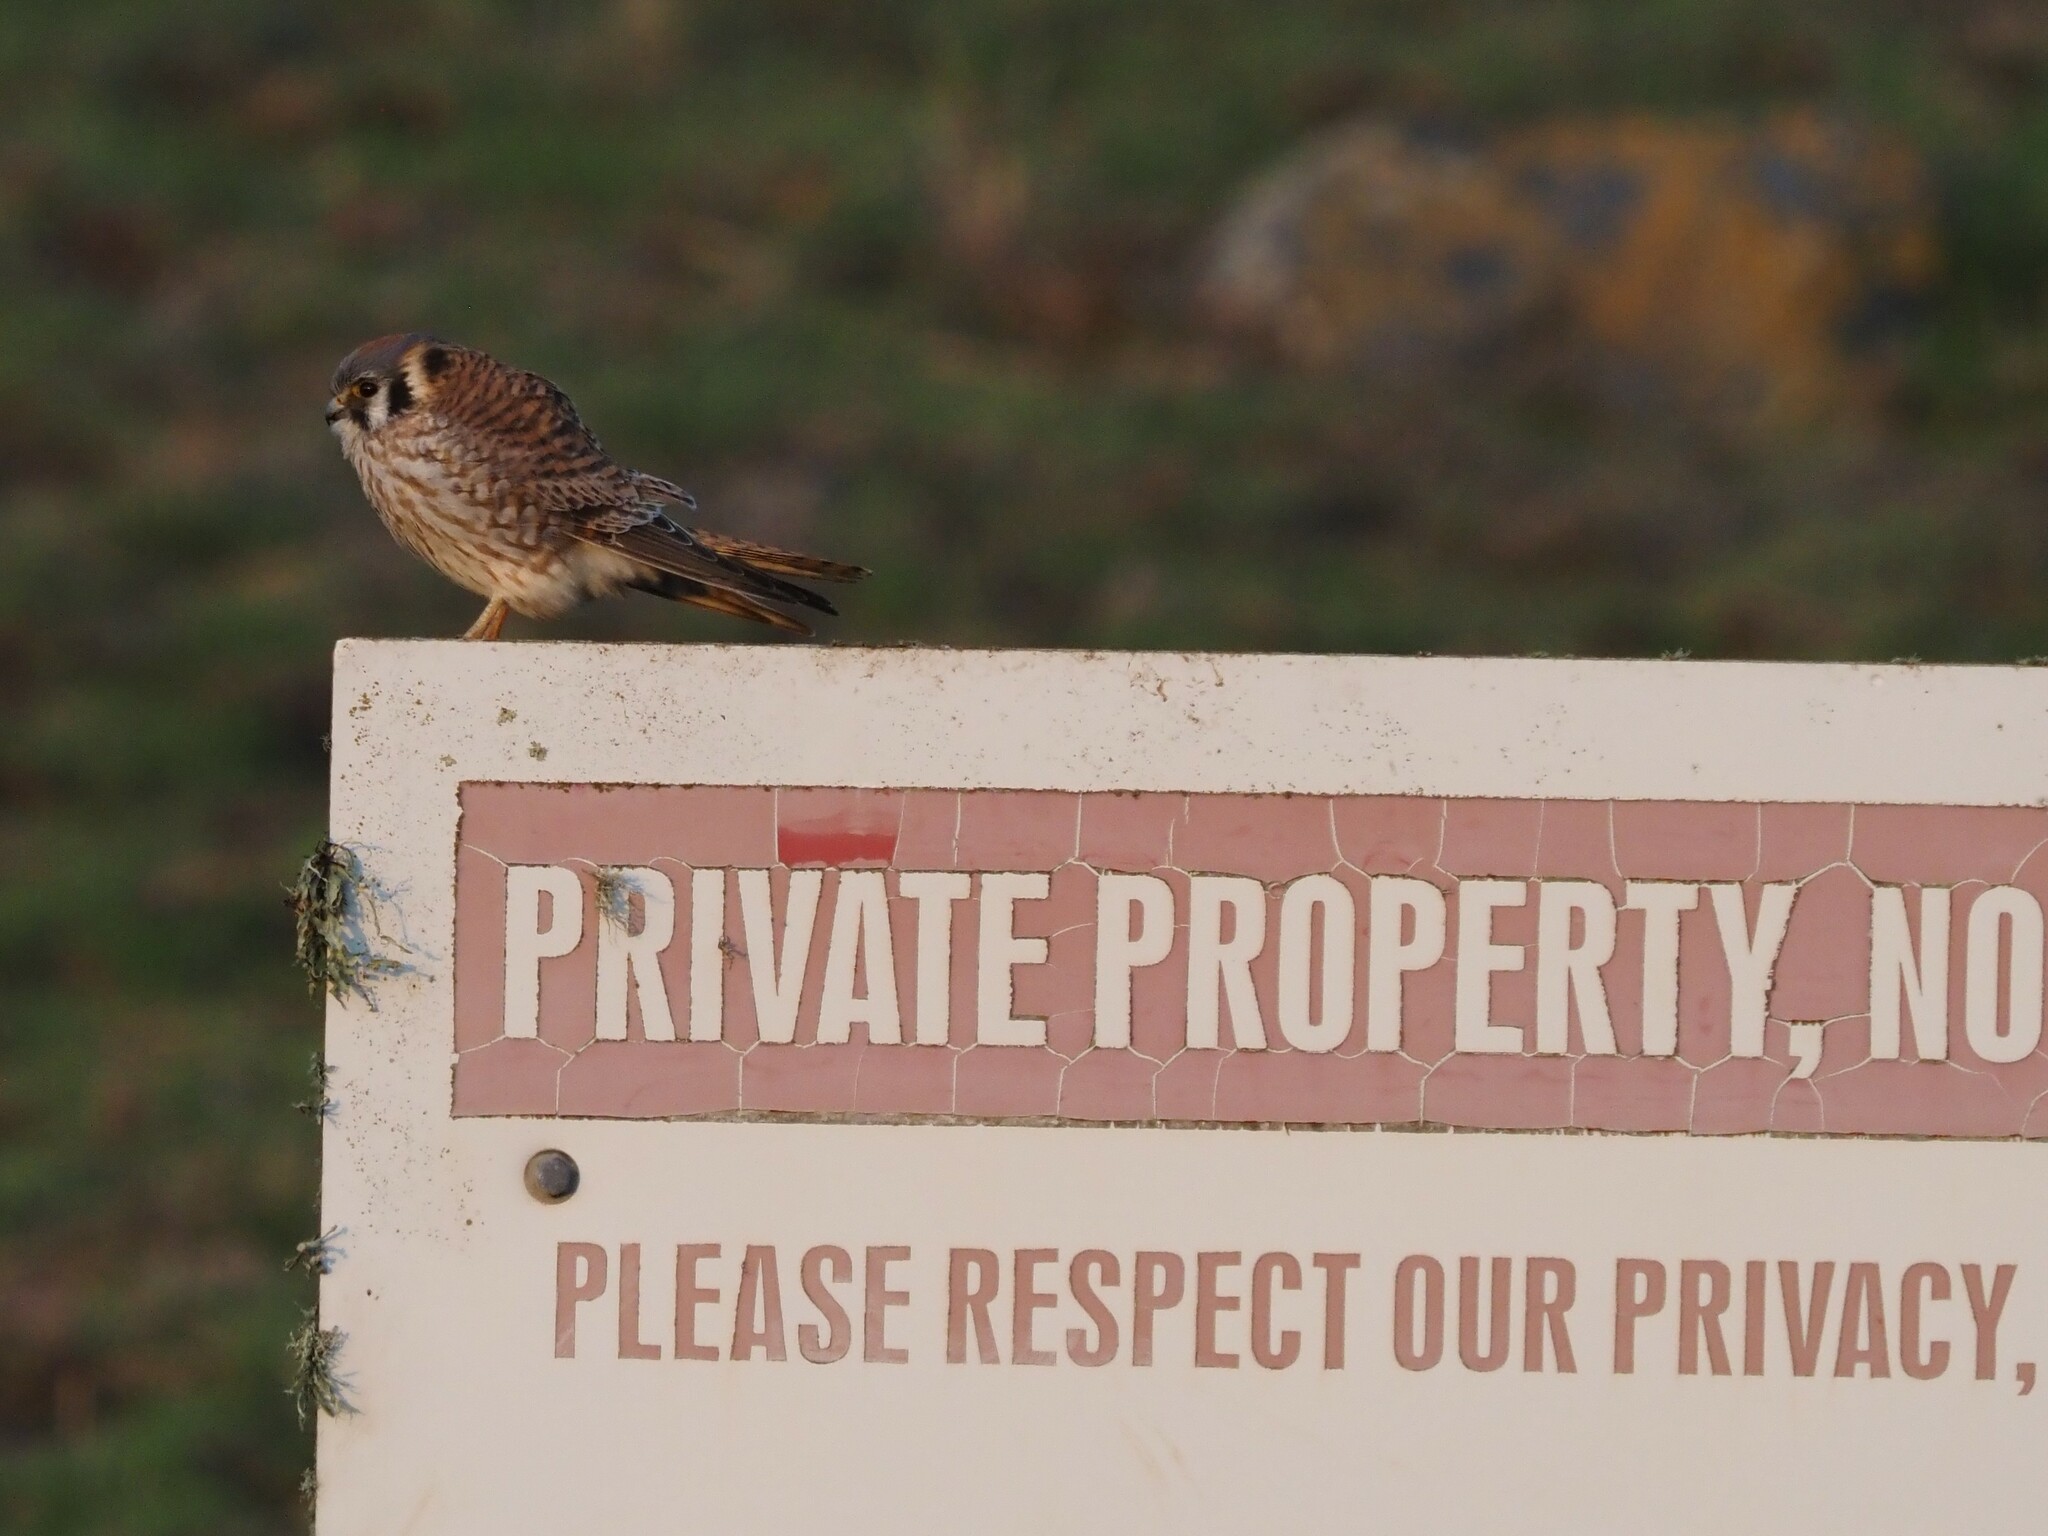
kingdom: Animalia
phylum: Chordata
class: Aves
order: Falconiformes
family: Falconidae
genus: Falco
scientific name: Falco sparverius
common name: American kestrel
